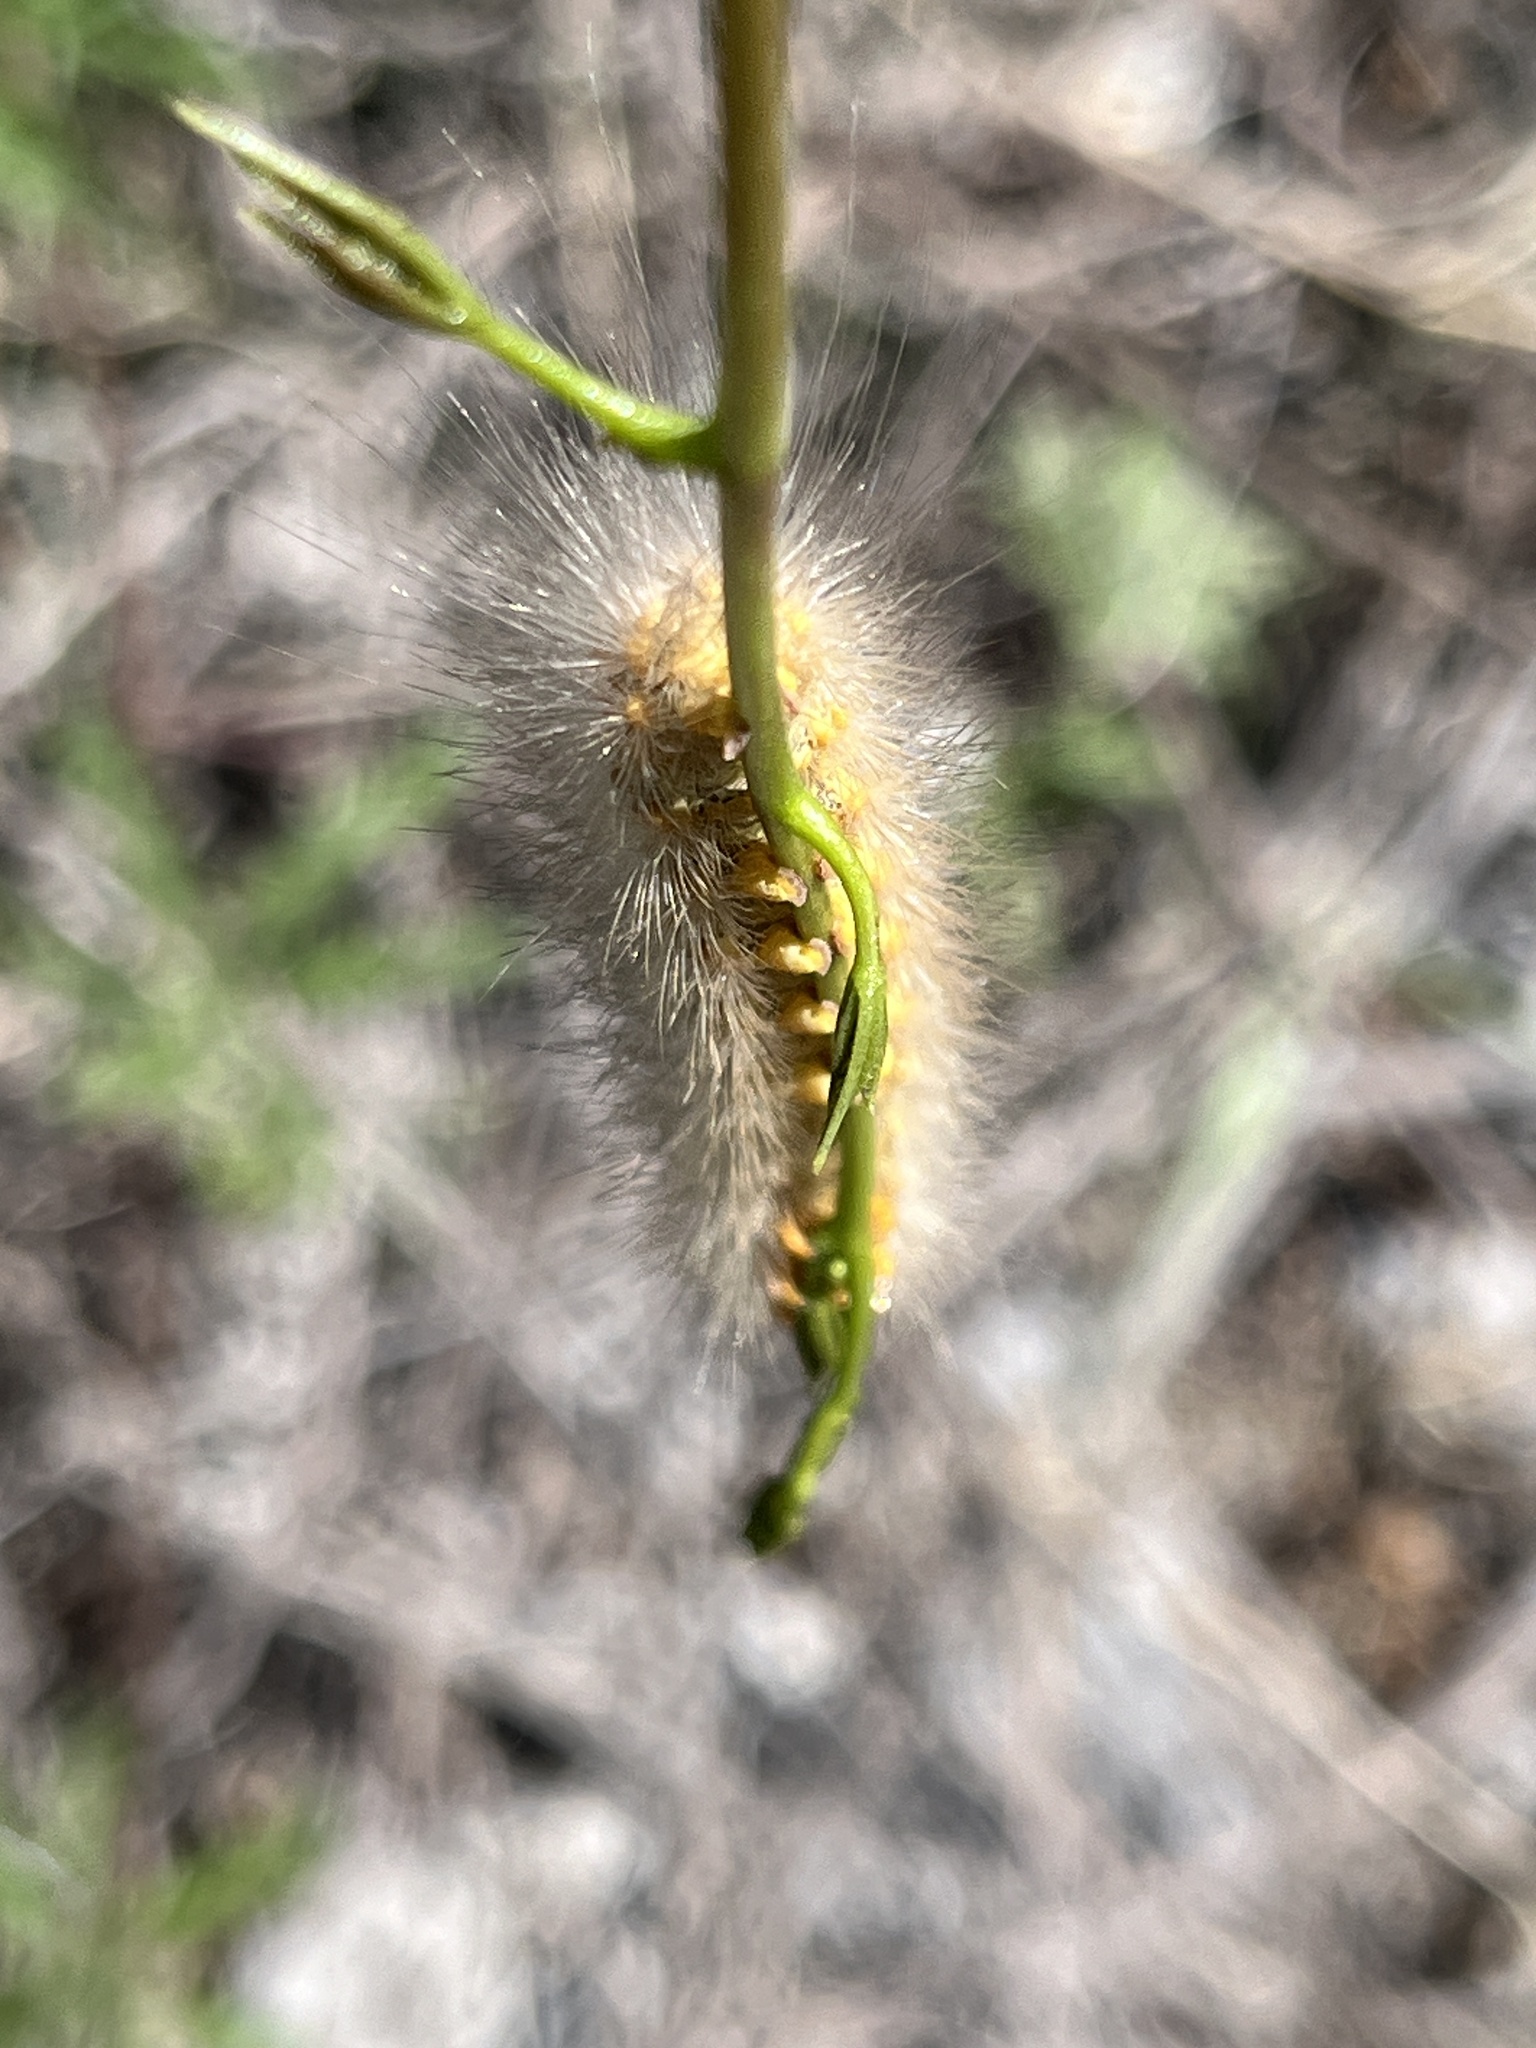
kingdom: Animalia
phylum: Arthropoda
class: Insecta
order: Lepidoptera
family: Erebidae
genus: Estigmene
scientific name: Estigmene acrea
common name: Salt marsh moth
